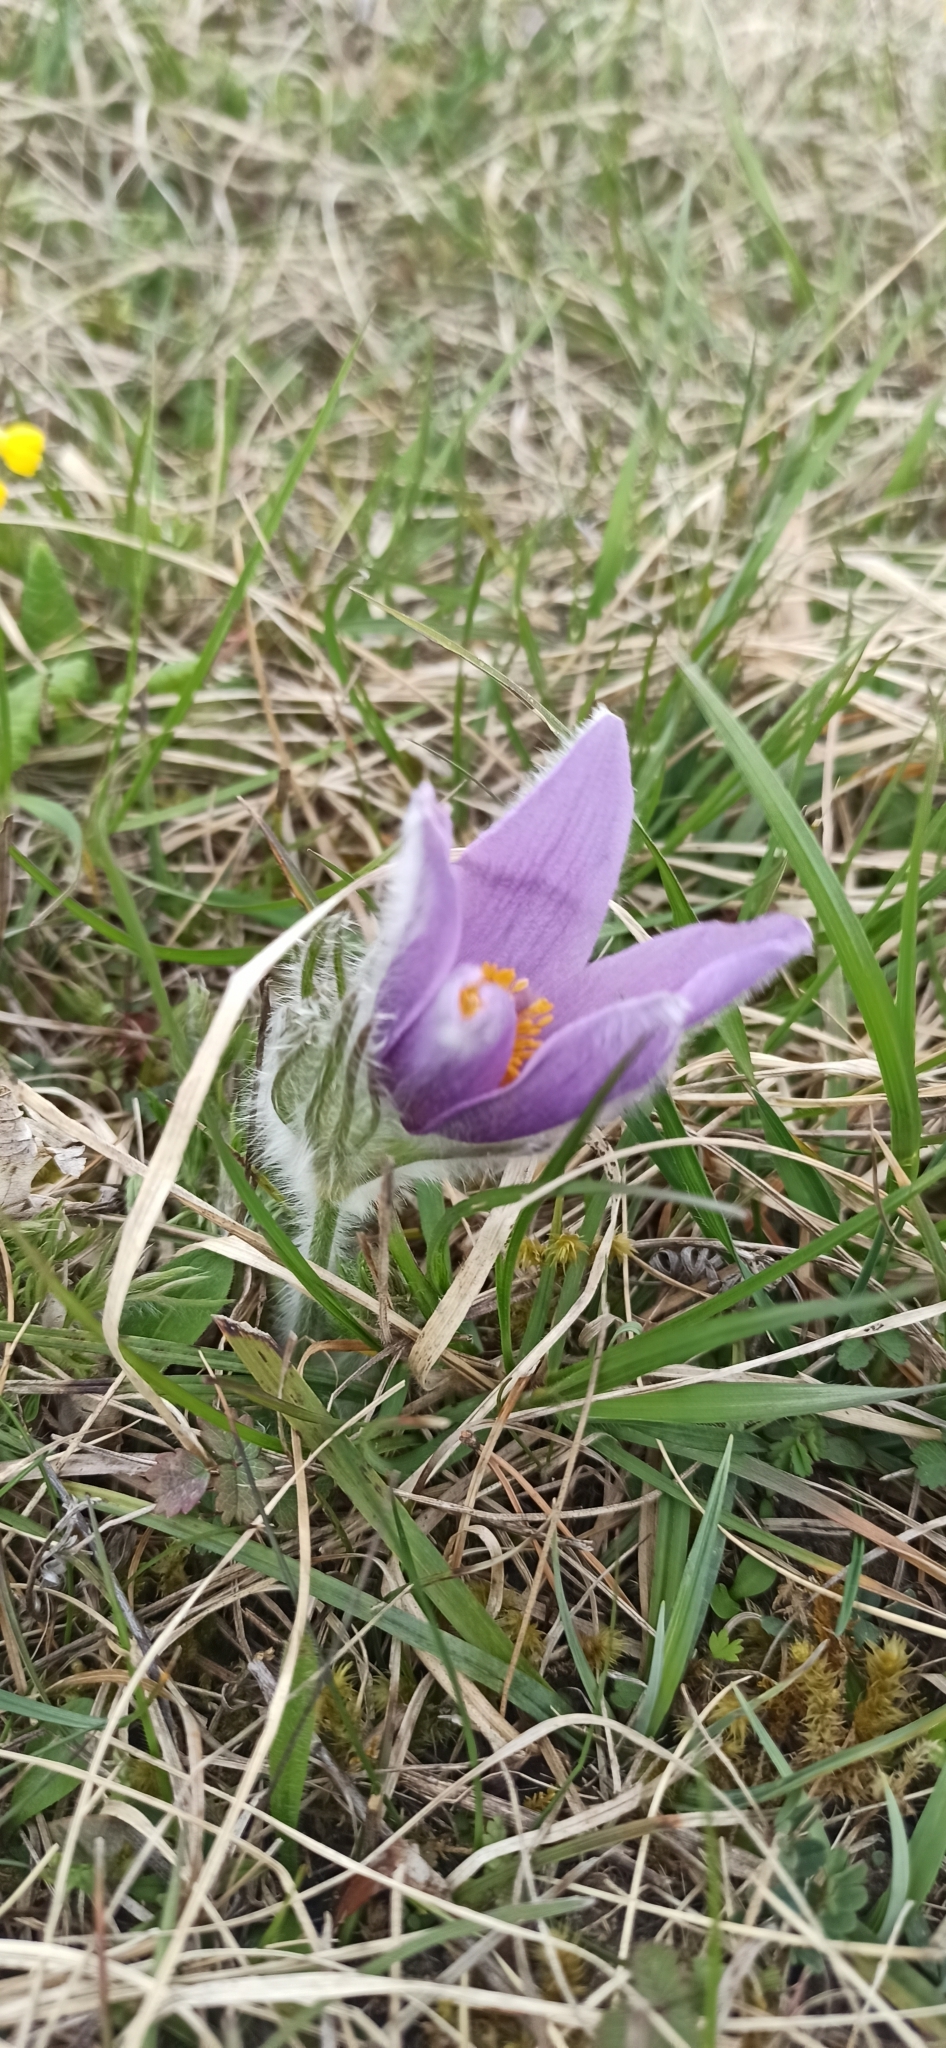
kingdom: Plantae
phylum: Tracheophyta
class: Magnoliopsida
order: Ranunculales
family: Ranunculaceae
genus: Pulsatilla
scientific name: Pulsatilla vulgaris
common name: Pasqueflower
